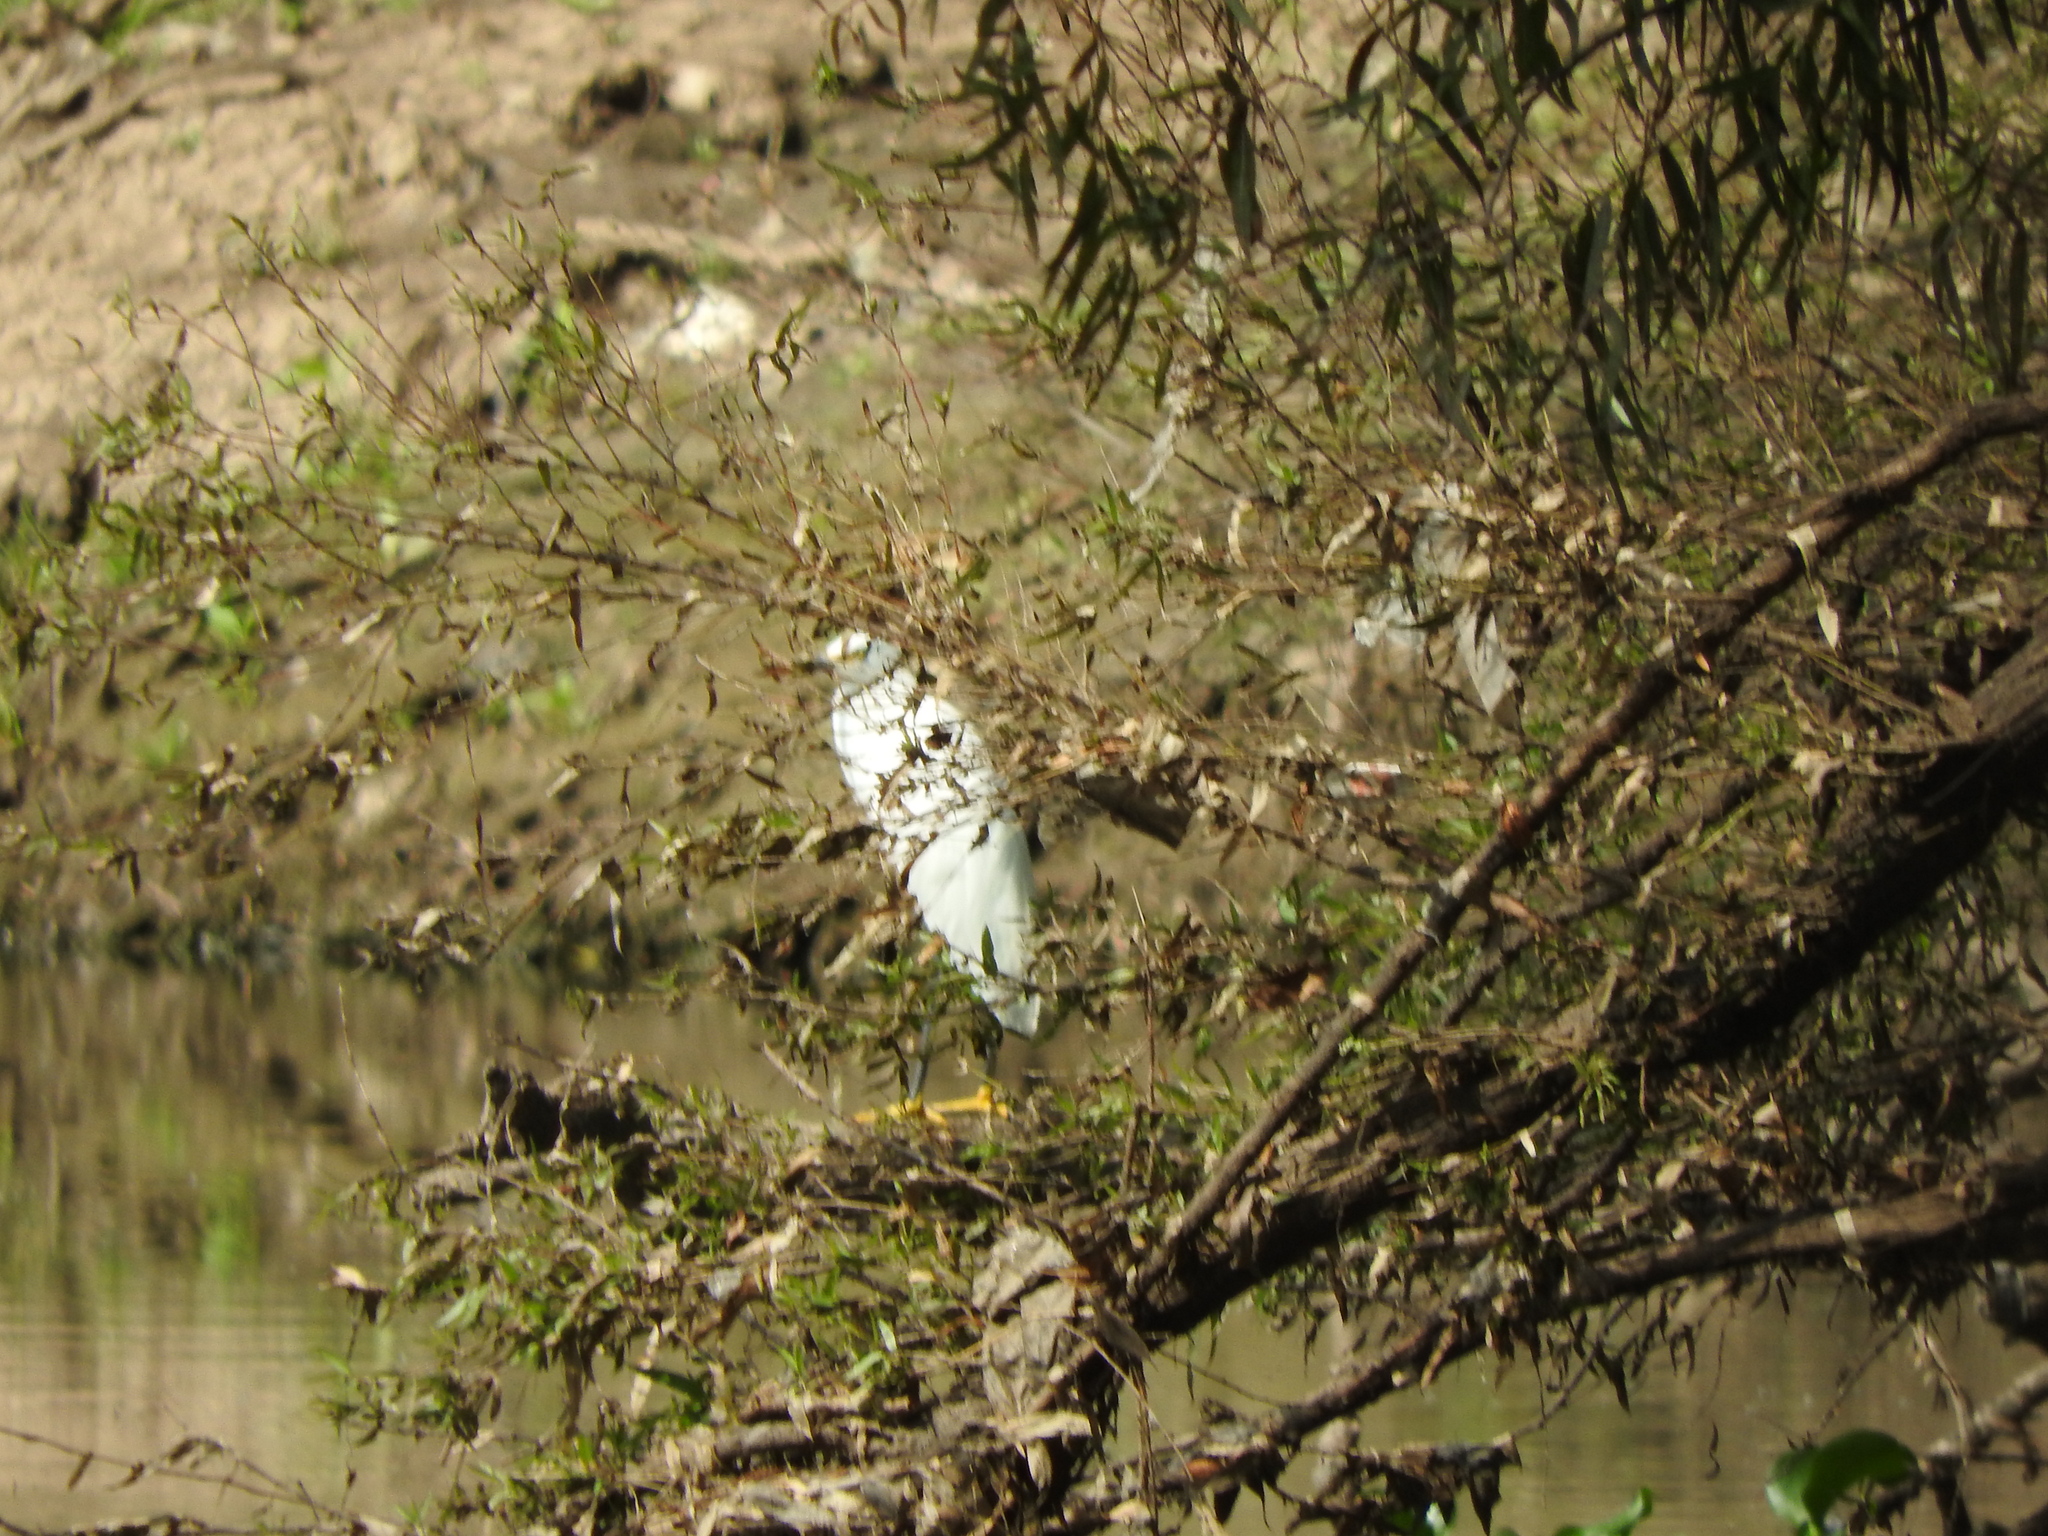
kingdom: Animalia
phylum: Chordata
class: Aves
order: Pelecaniformes
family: Ardeidae
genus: Egretta
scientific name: Egretta thula
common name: Snowy egret
